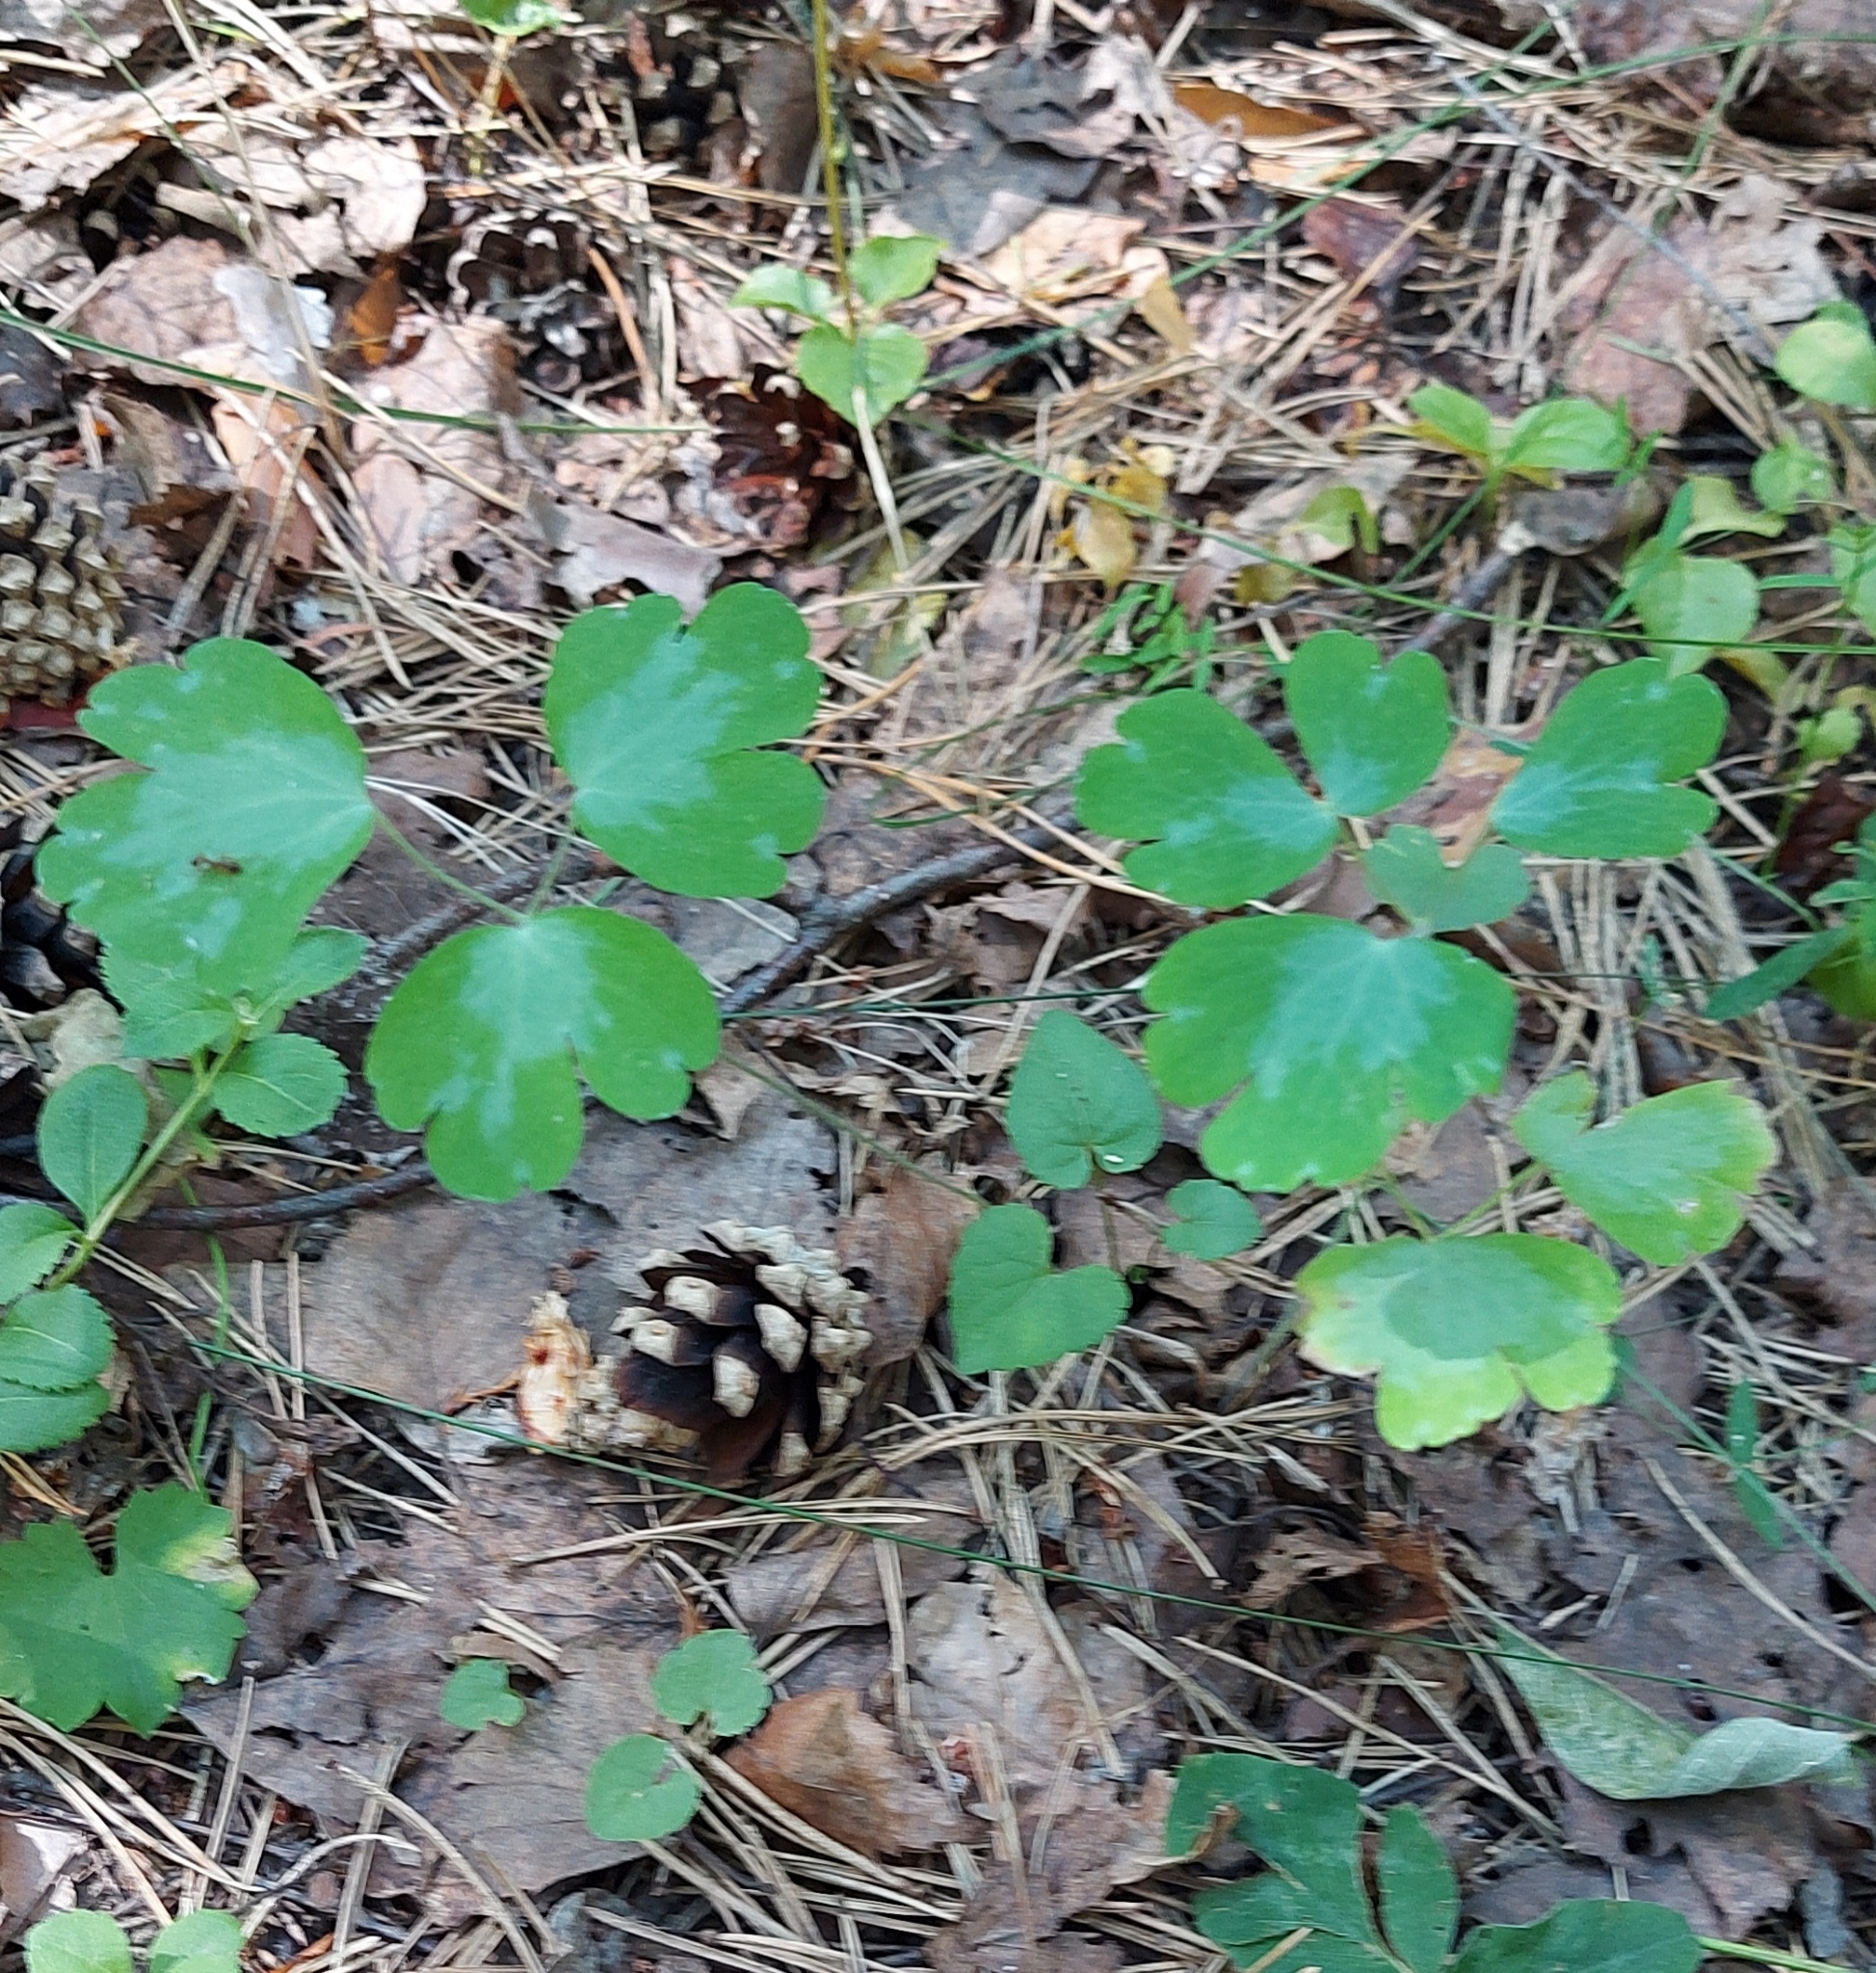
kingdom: Plantae
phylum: Tracheophyta
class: Magnoliopsida
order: Ranunculales
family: Ranunculaceae
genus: Aquilegia
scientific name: Aquilegia vulgaris
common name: Columbine
